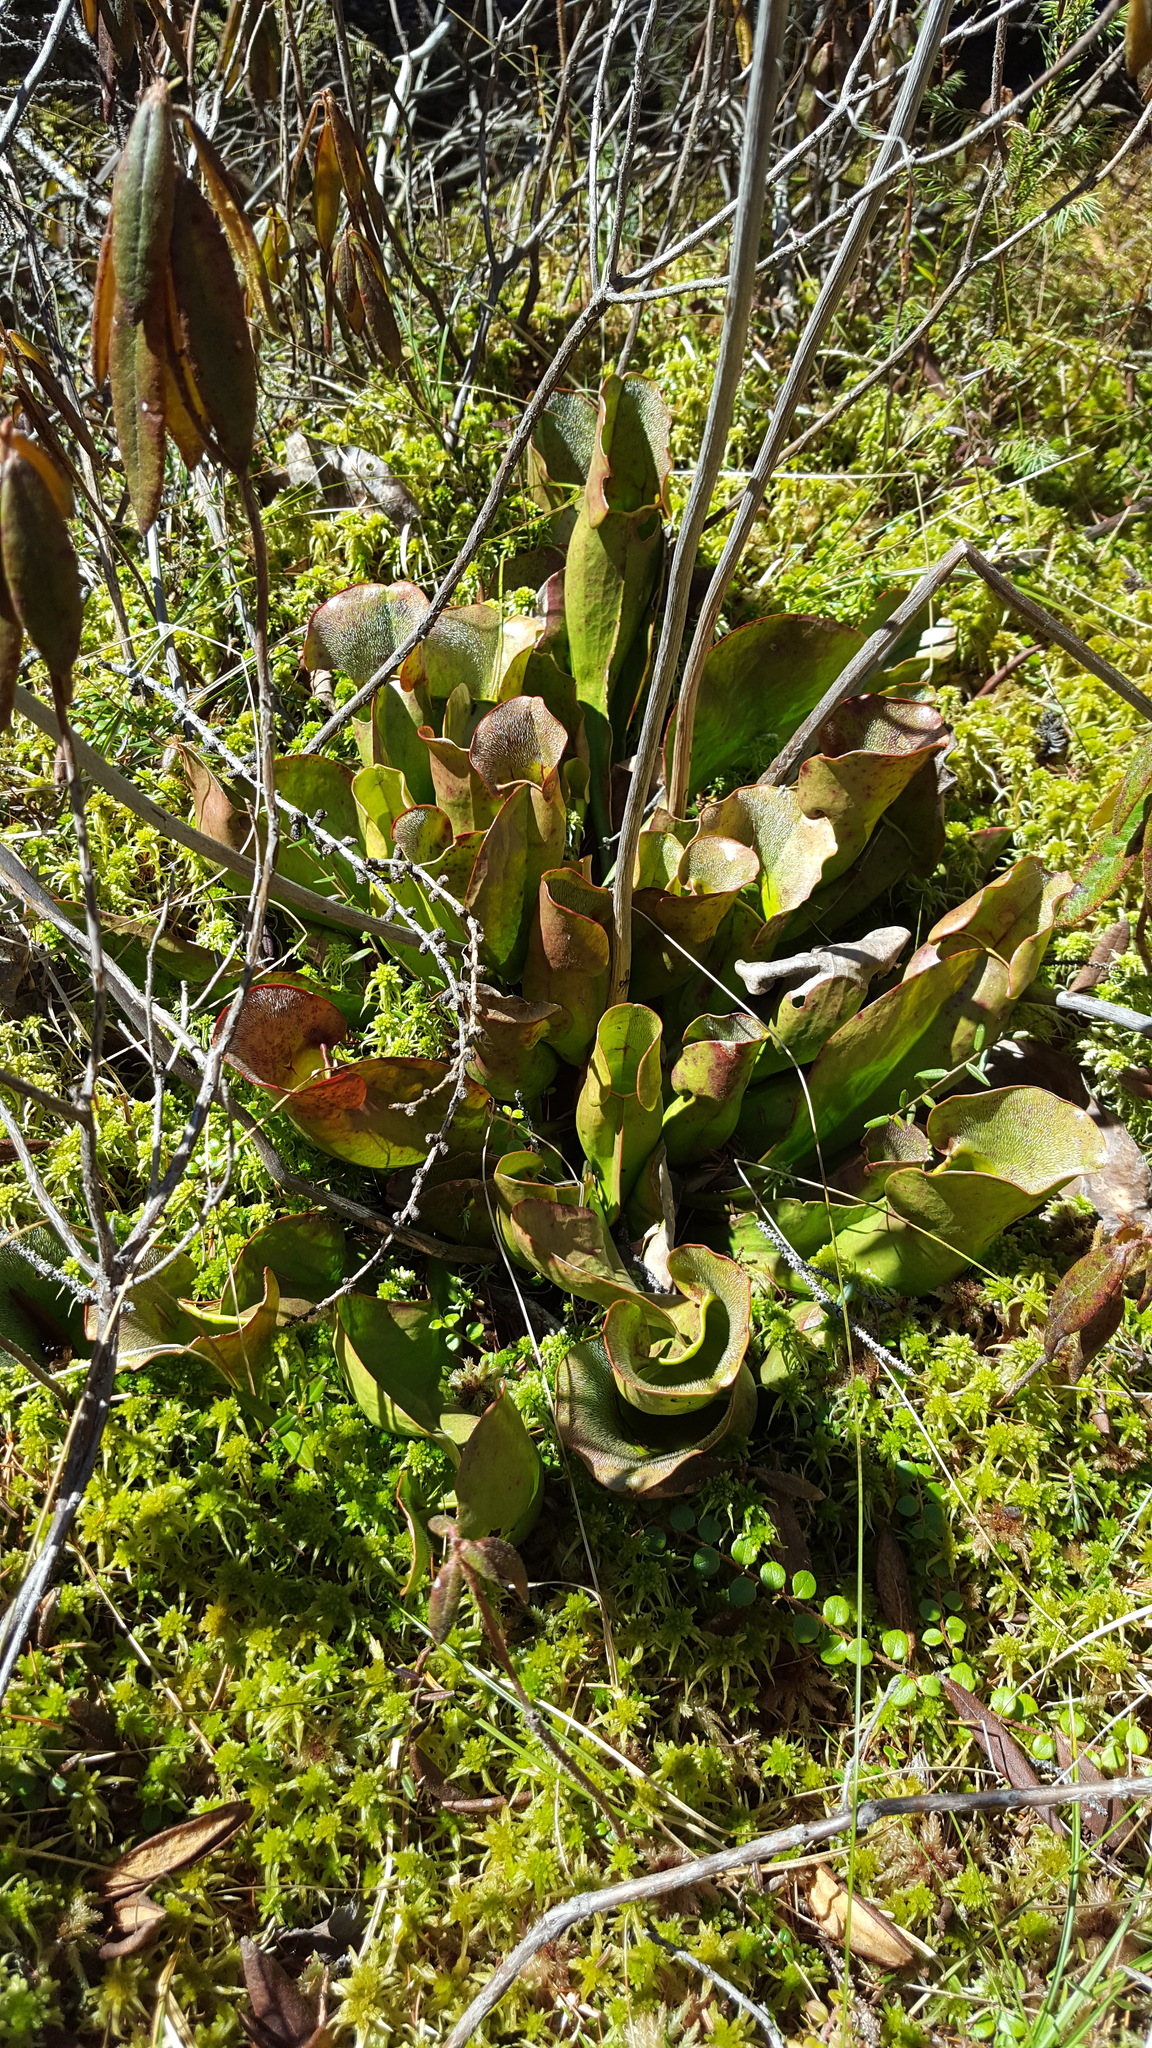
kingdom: Plantae
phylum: Tracheophyta
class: Magnoliopsida
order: Ericales
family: Sarraceniaceae
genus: Sarracenia
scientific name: Sarracenia purpurea
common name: Pitcherplant
